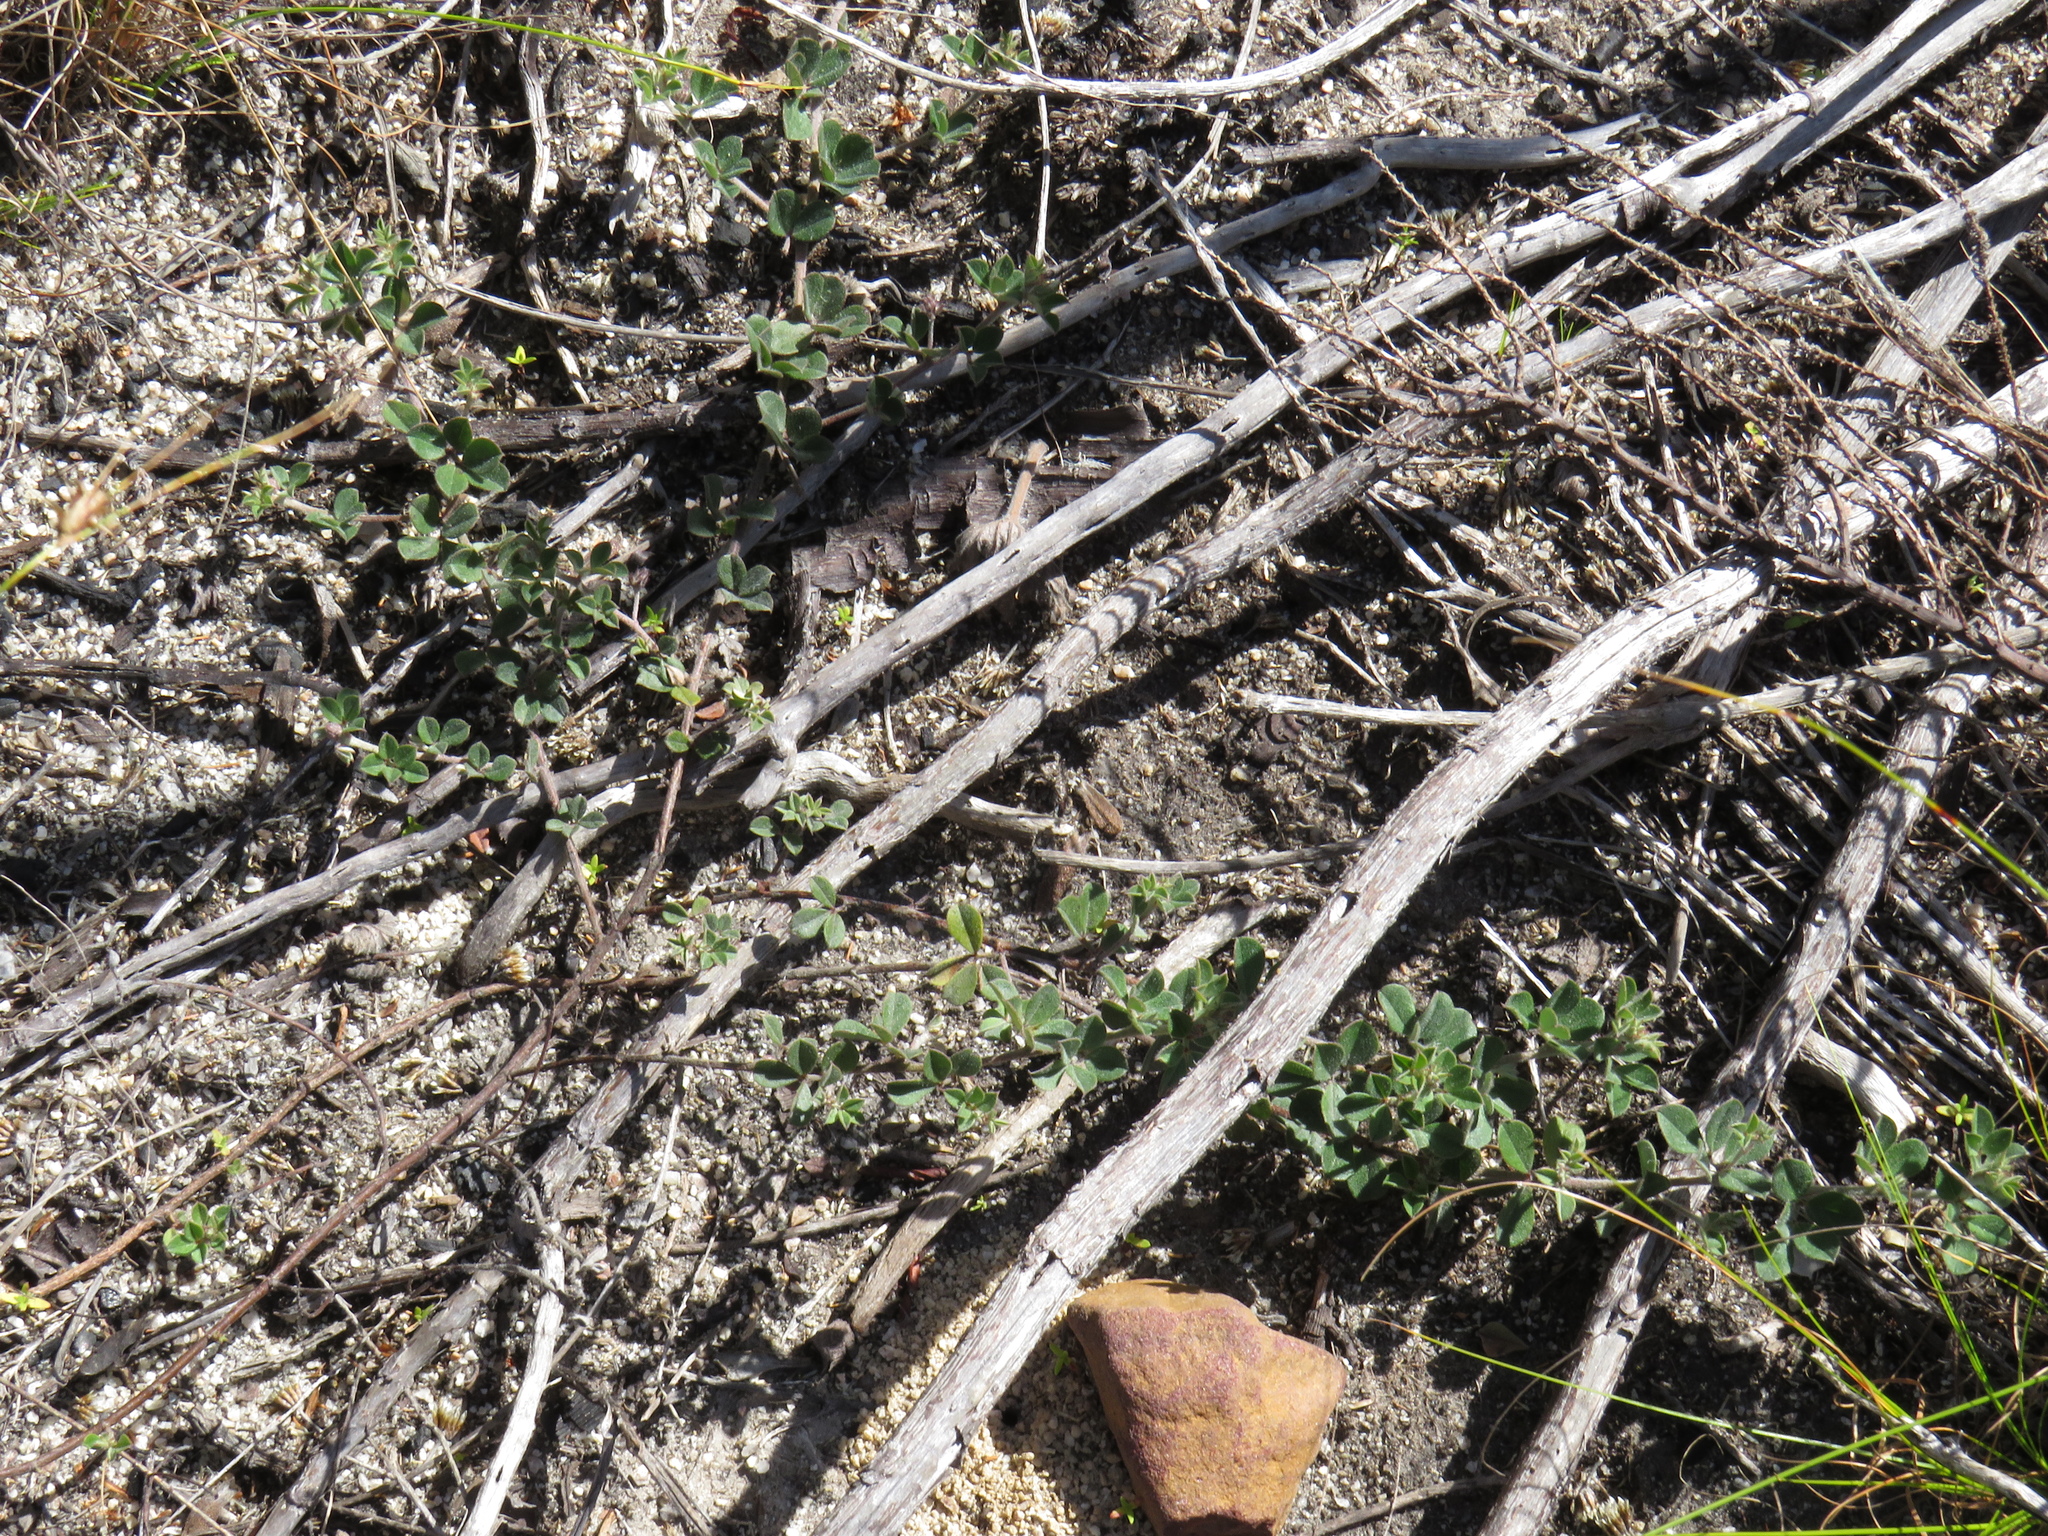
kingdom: Plantae
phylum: Tracheophyta
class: Magnoliopsida
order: Fabales
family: Fabaceae
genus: Indigofera
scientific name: Indigofera mauritanica
